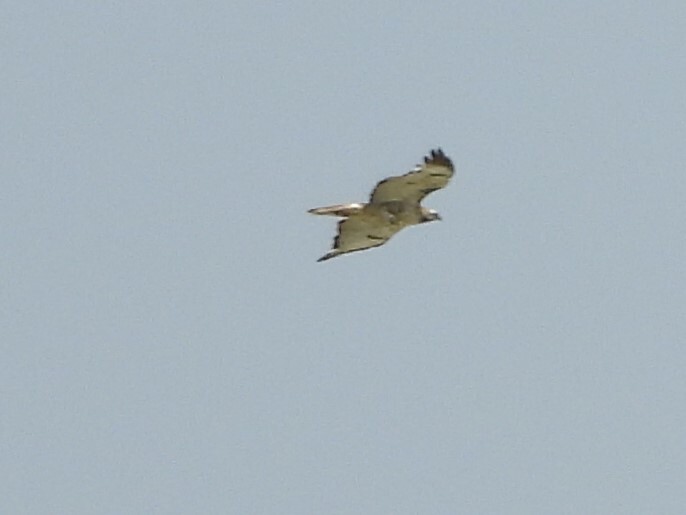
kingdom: Animalia
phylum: Chordata
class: Aves
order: Accipitriformes
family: Accipitridae
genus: Buteo
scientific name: Buteo jamaicensis
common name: Red-tailed hawk
